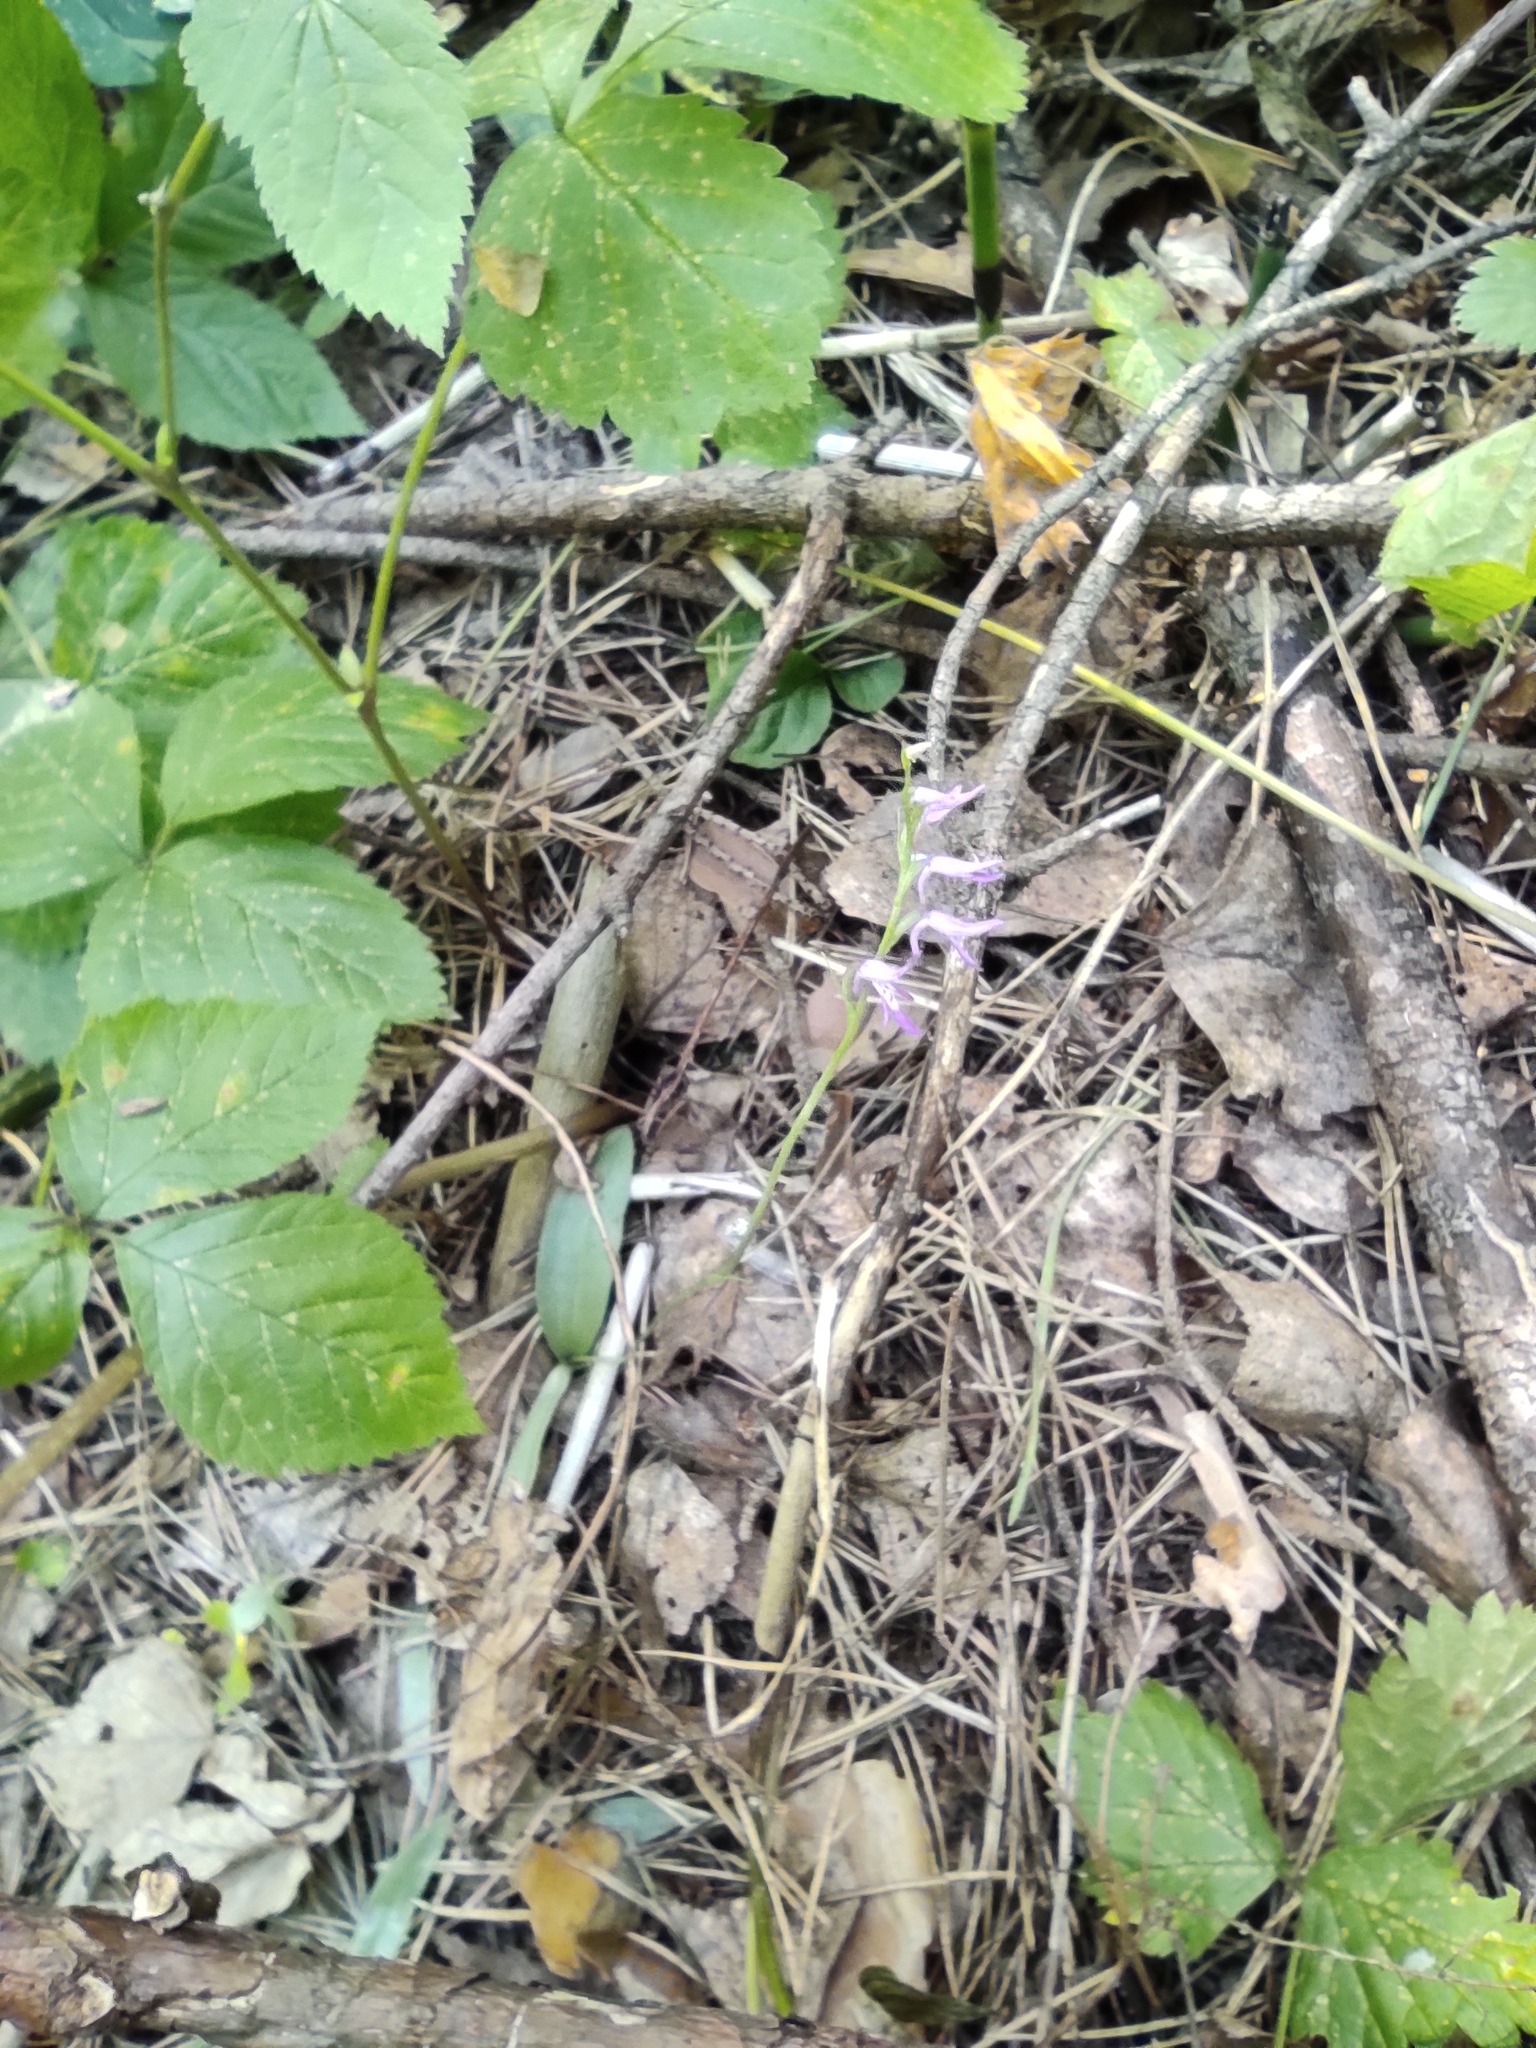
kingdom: Plantae
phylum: Tracheophyta
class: Liliopsida
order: Asparagales
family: Orchidaceae
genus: Hemipilia
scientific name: Hemipilia cucullata
